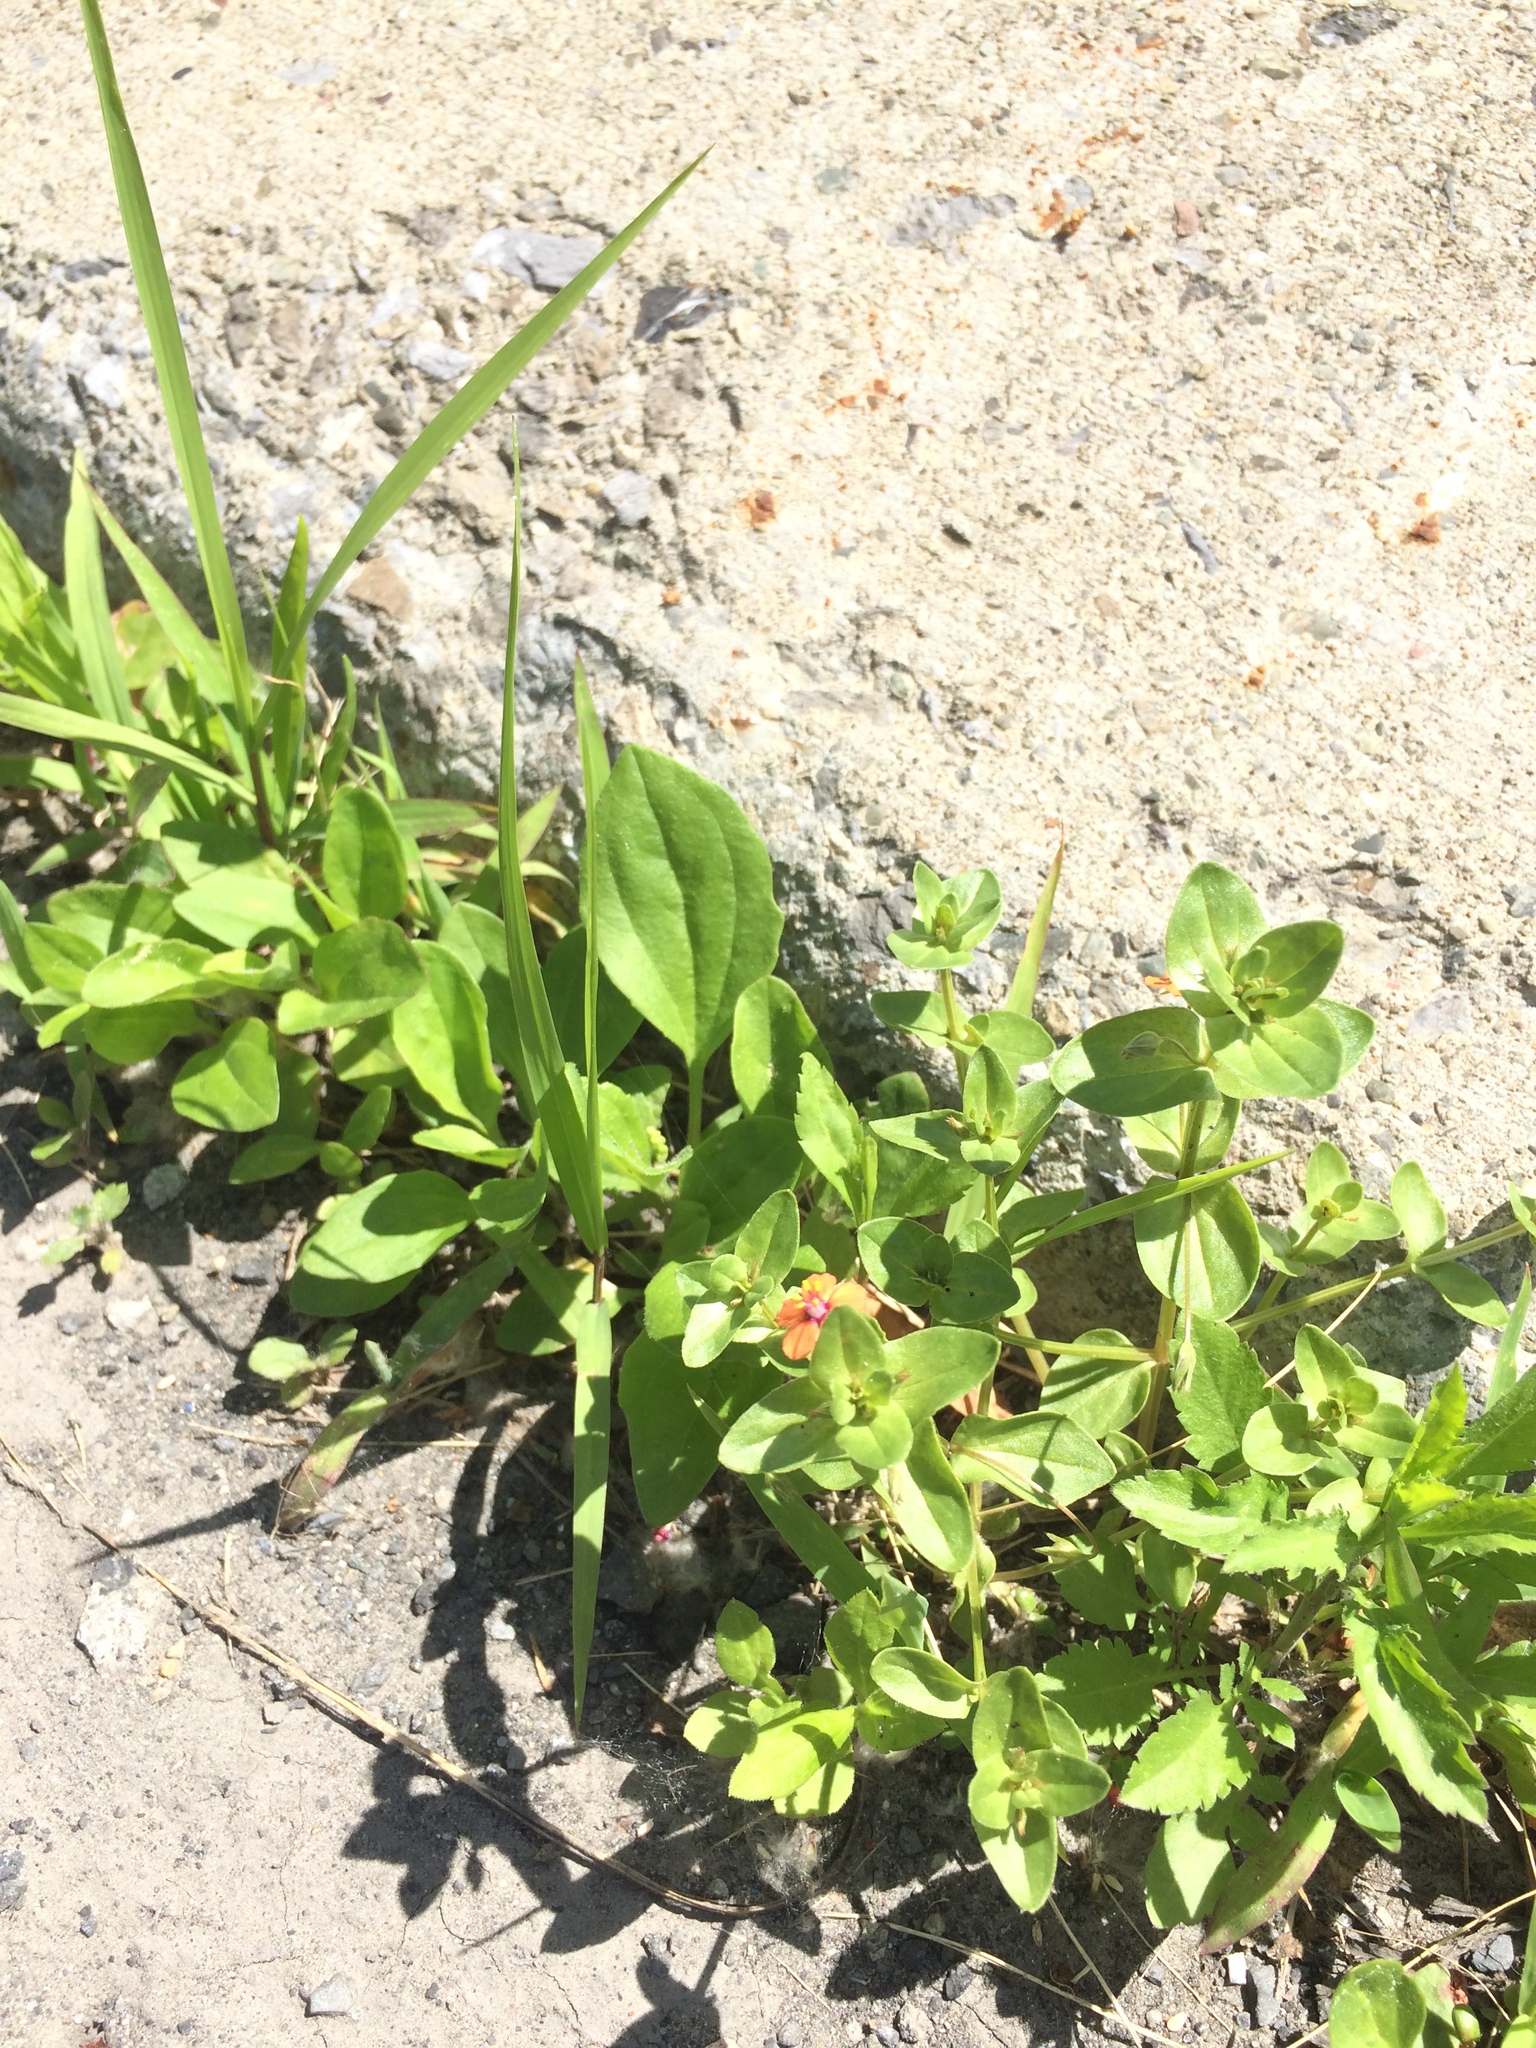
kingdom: Plantae
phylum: Tracheophyta
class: Magnoliopsida
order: Ericales
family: Primulaceae
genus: Lysimachia
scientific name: Lysimachia arvensis
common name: Scarlet pimpernel
